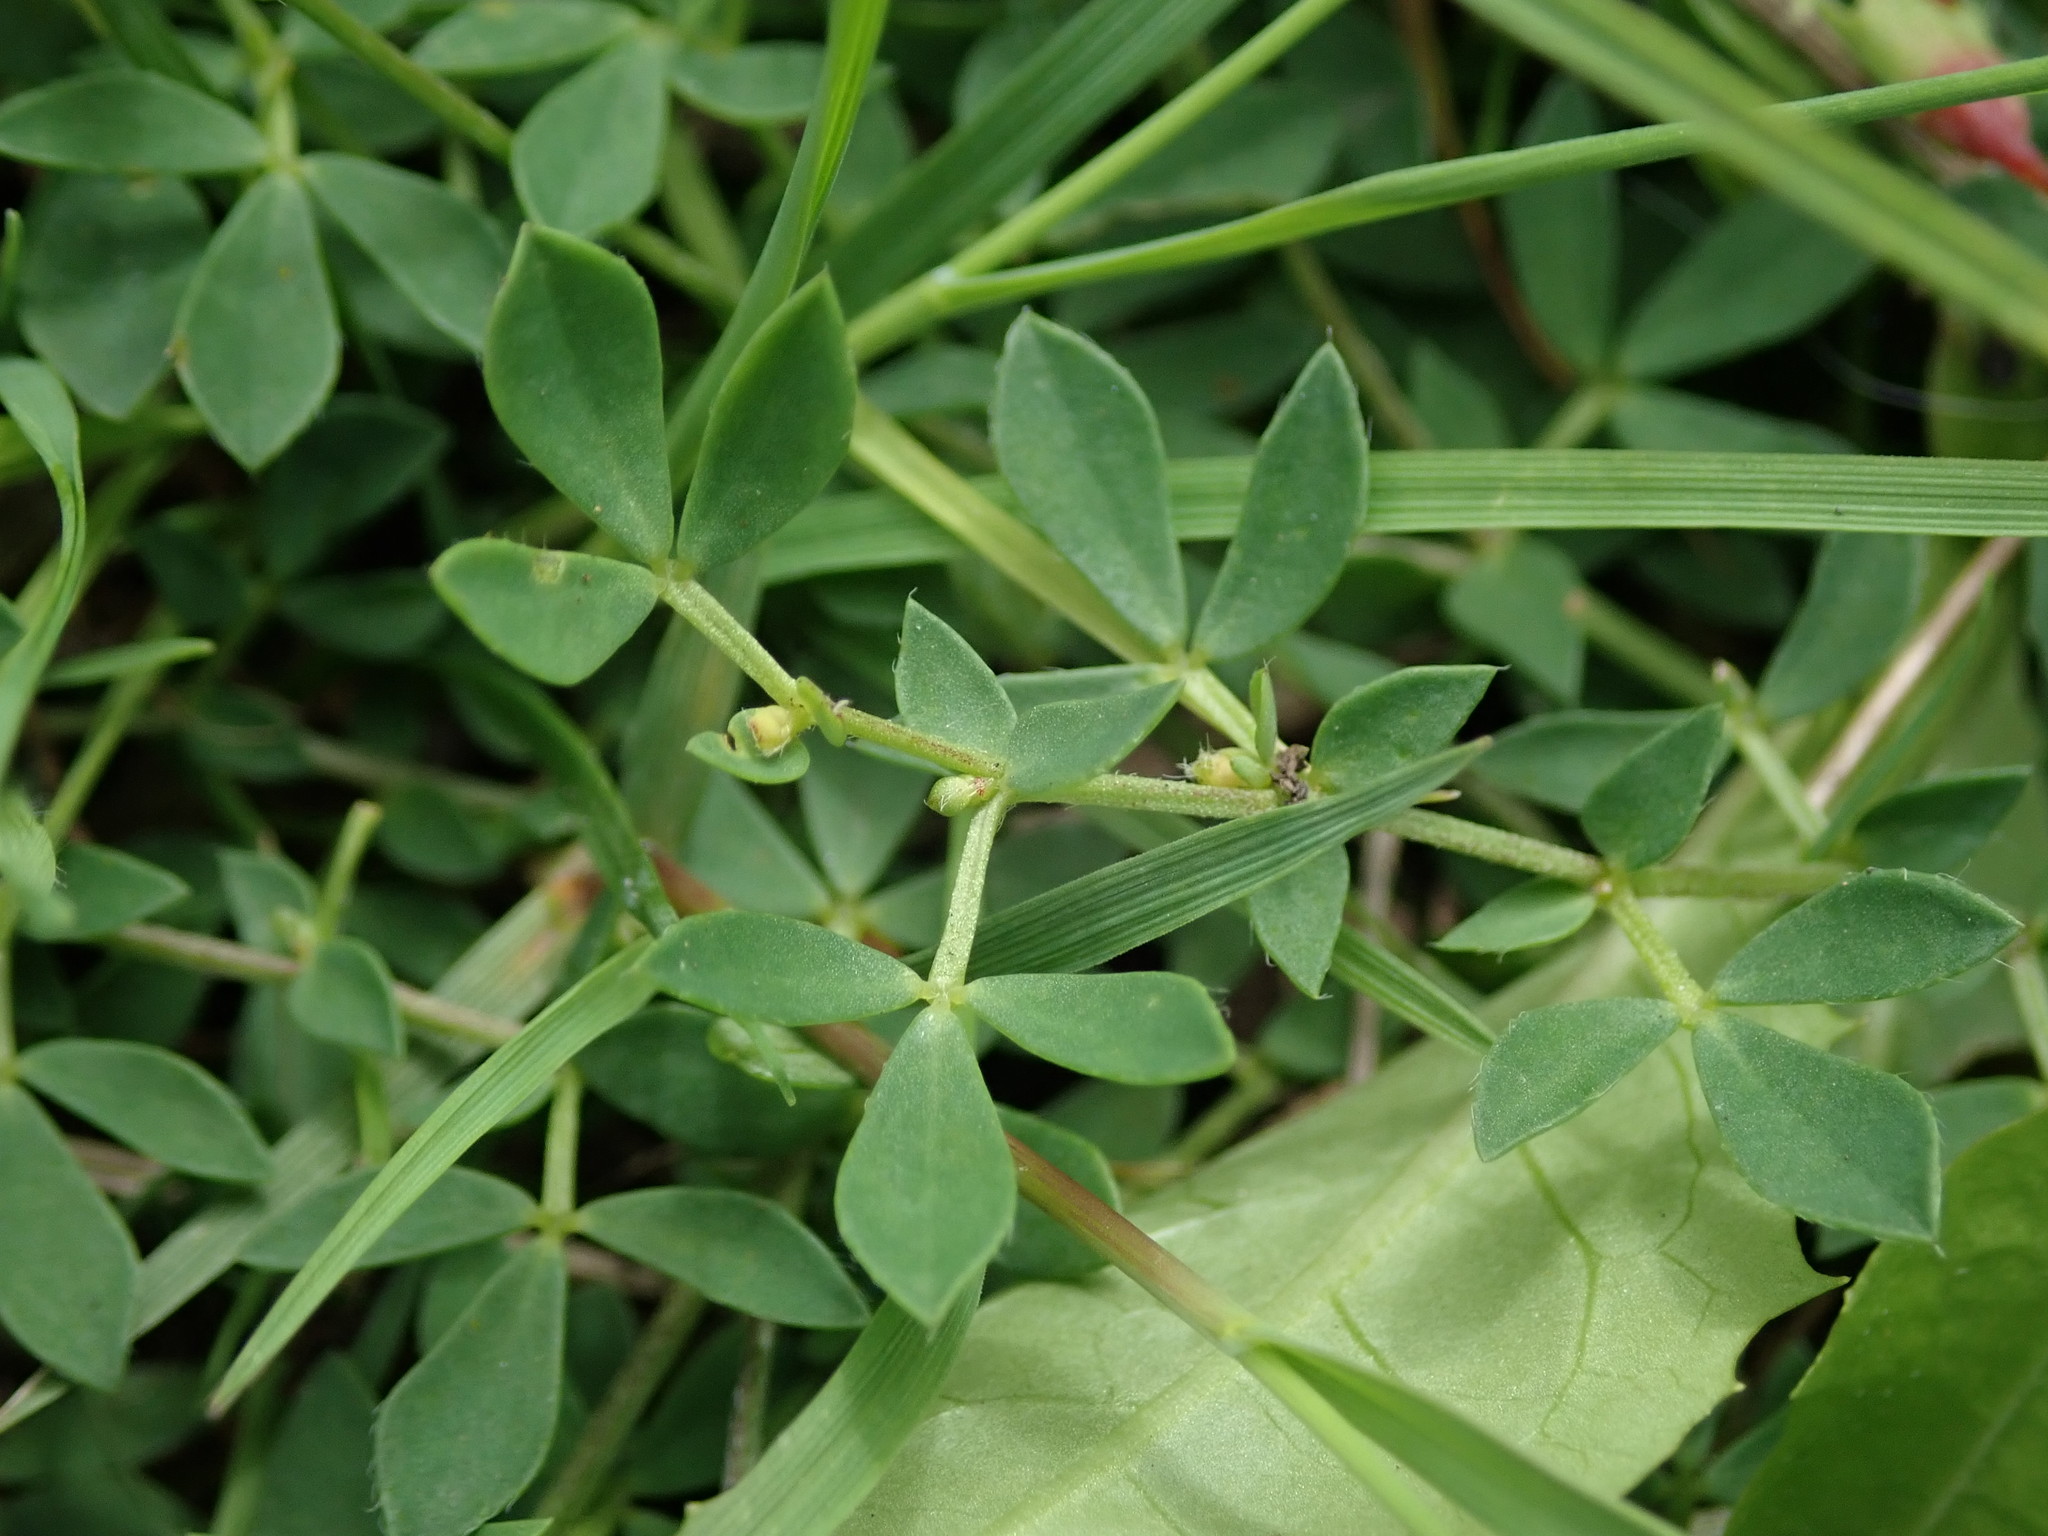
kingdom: Plantae
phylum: Tracheophyta
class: Magnoliopsida
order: Fabales
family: Fabaceae
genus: Lotus
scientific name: Lotus corniculatus
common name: Common bird's-foot-trefoil
